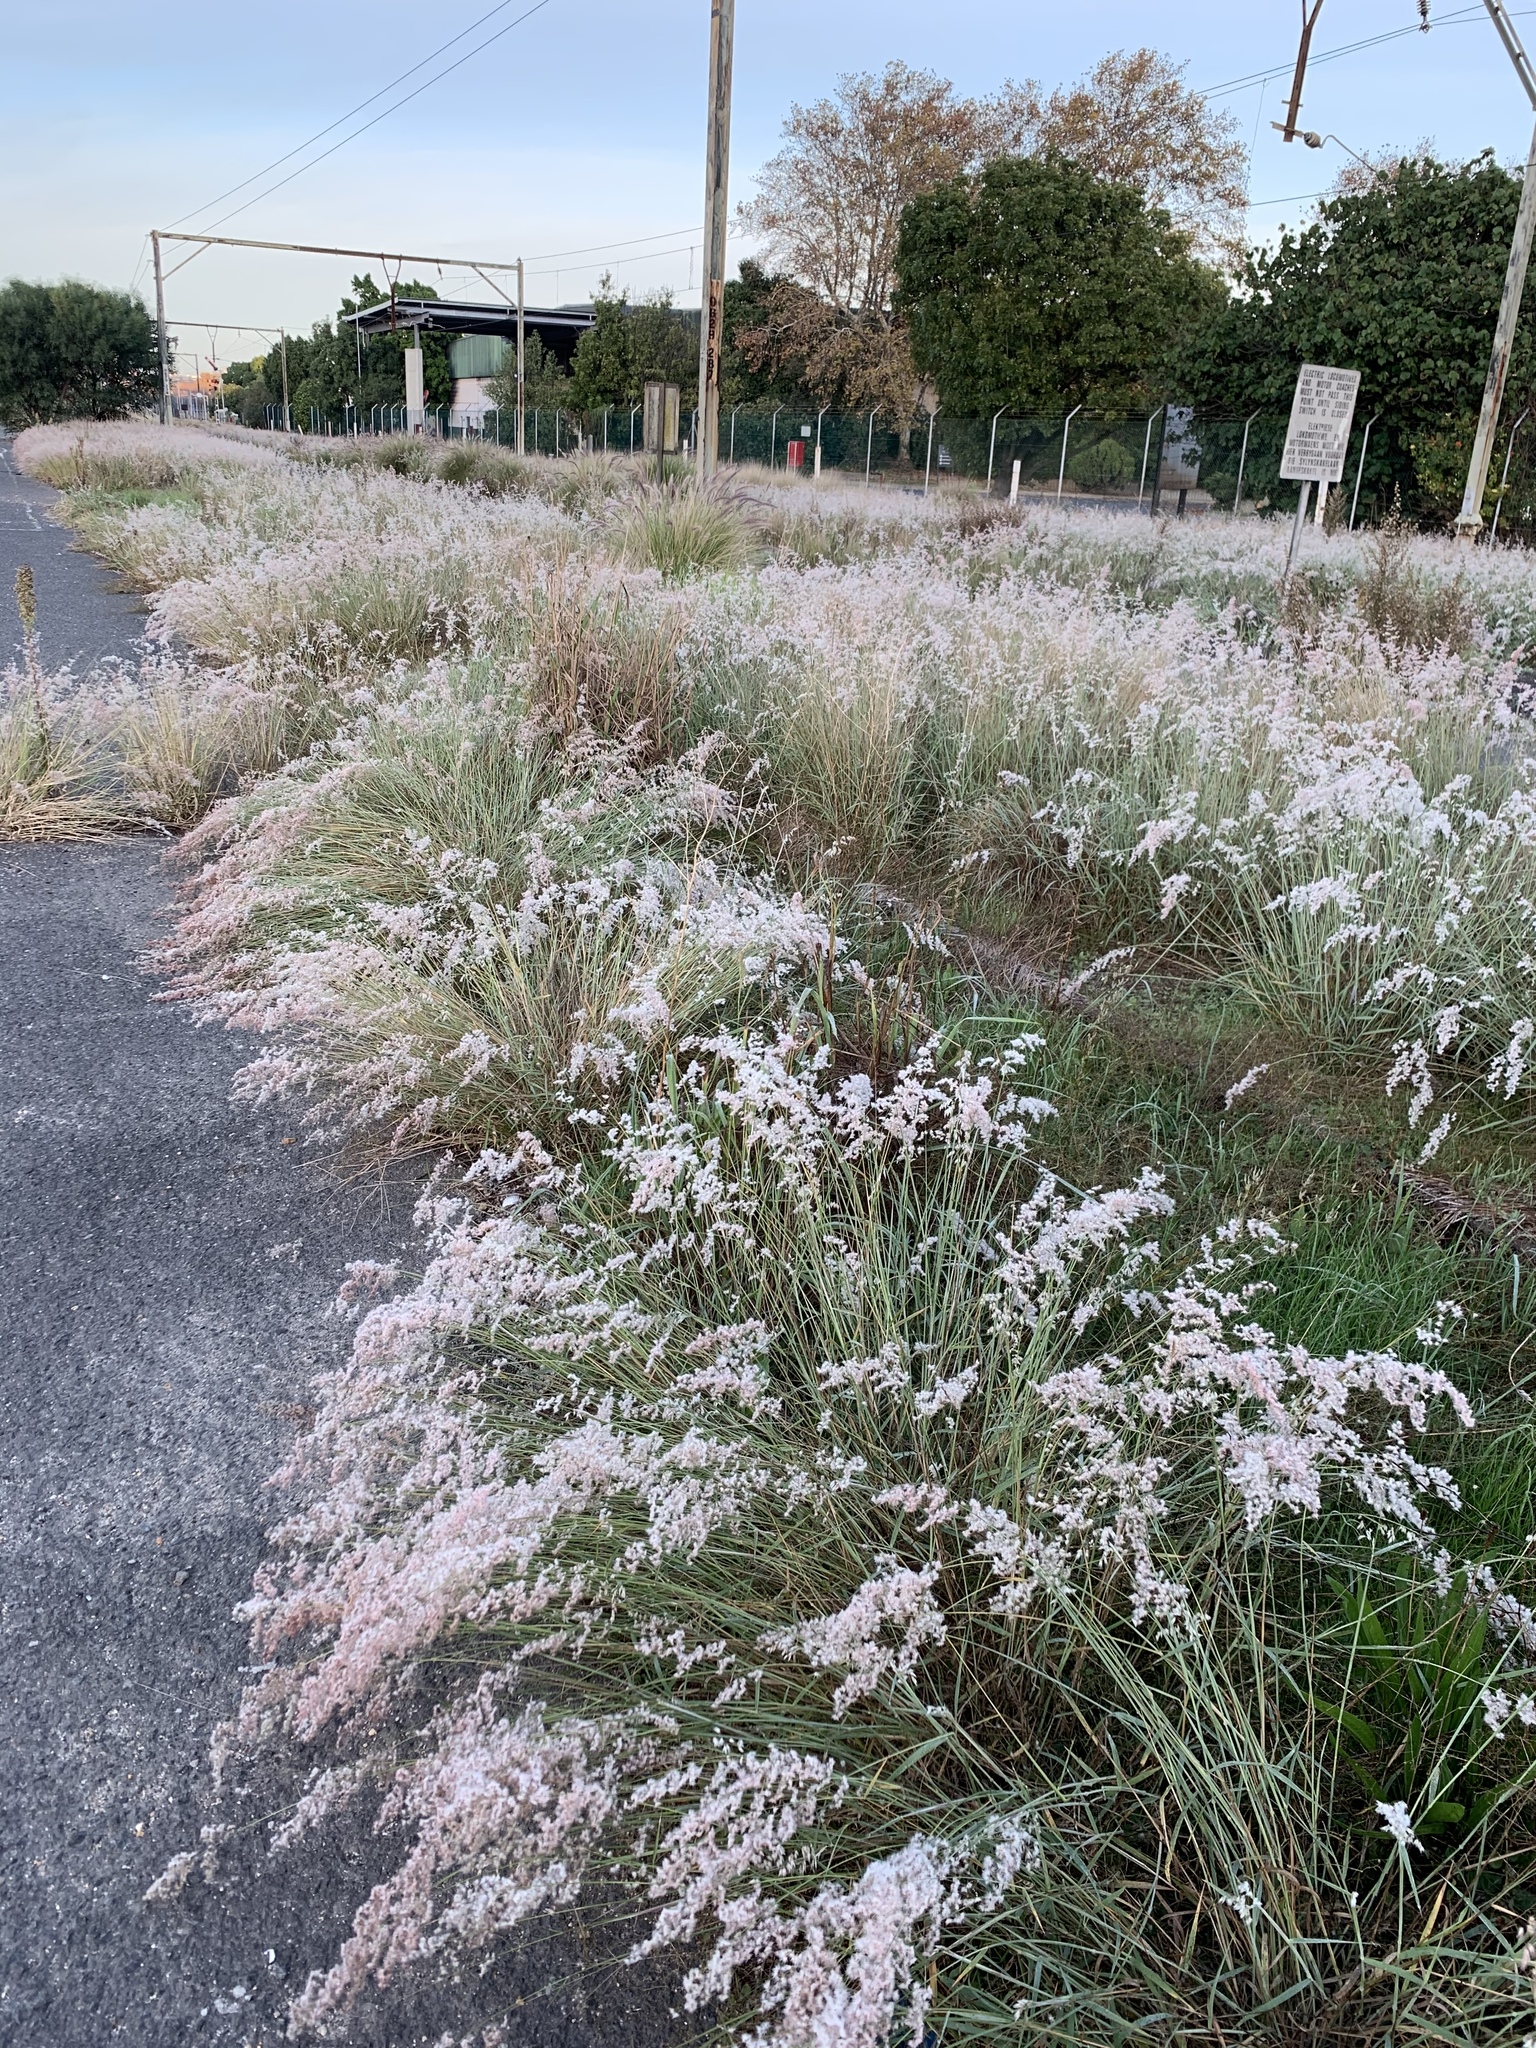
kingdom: Plantae
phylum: Tracheophyta
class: Liliopsida
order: Poales
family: Poaceae
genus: Melinis
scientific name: Melinis repens
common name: Rose natal grass
